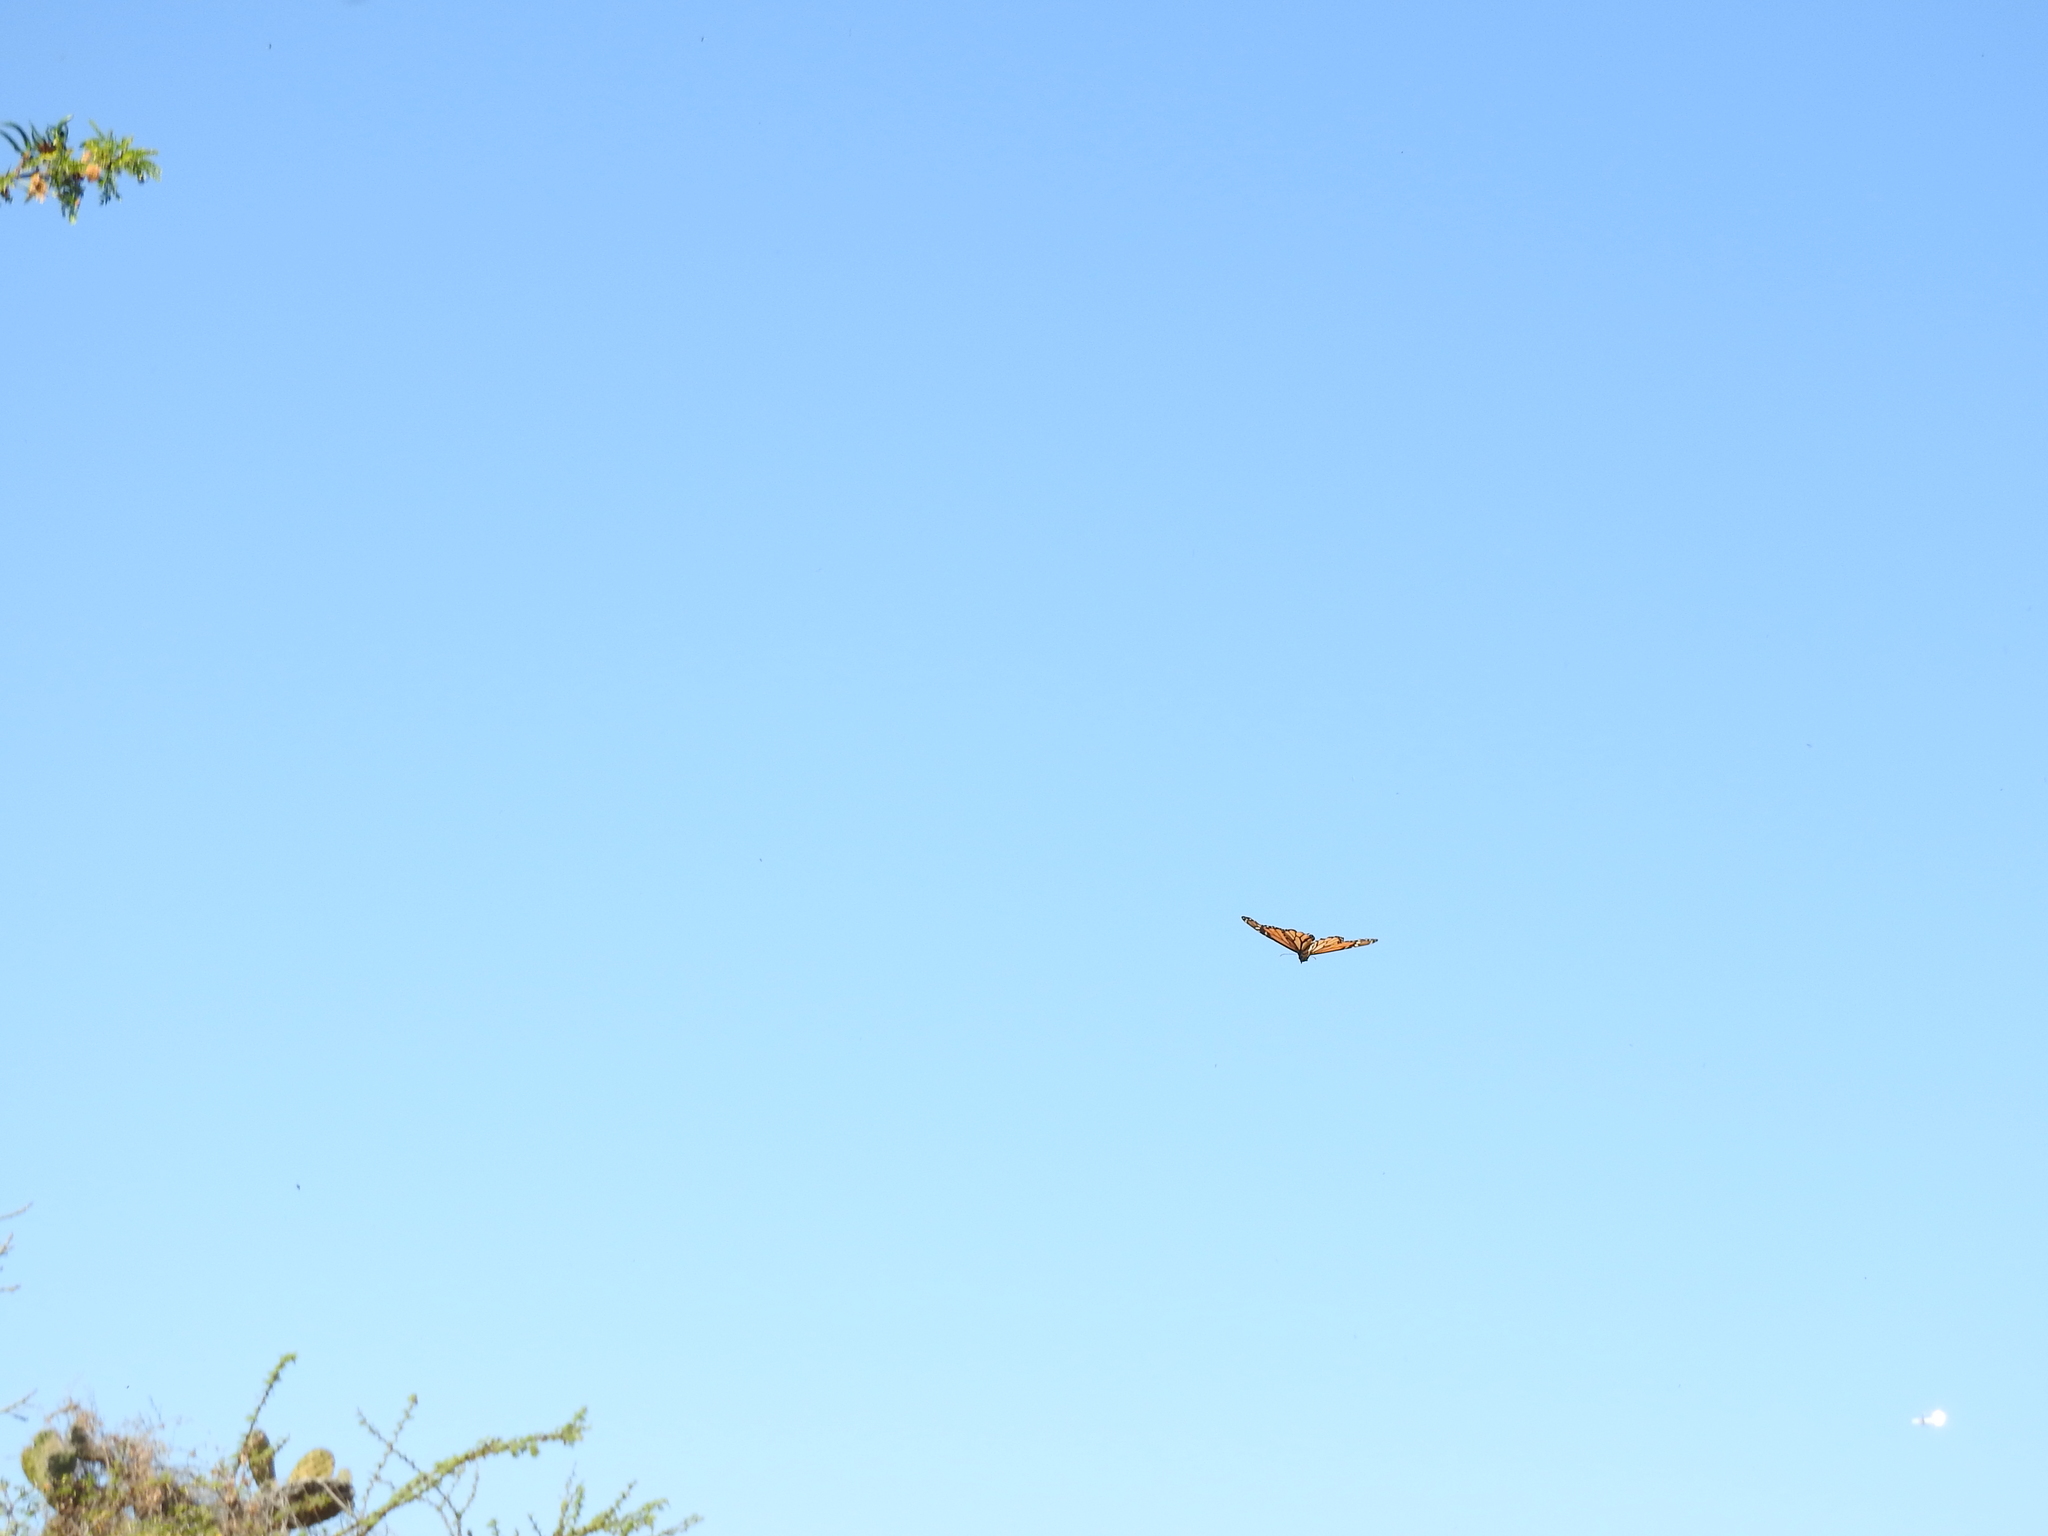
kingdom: Animalia
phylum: Arthropoda
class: Insecta
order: Lepidoptera
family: Nymphalidae
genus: Danaus
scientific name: Danaus plexippus
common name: Monarch
